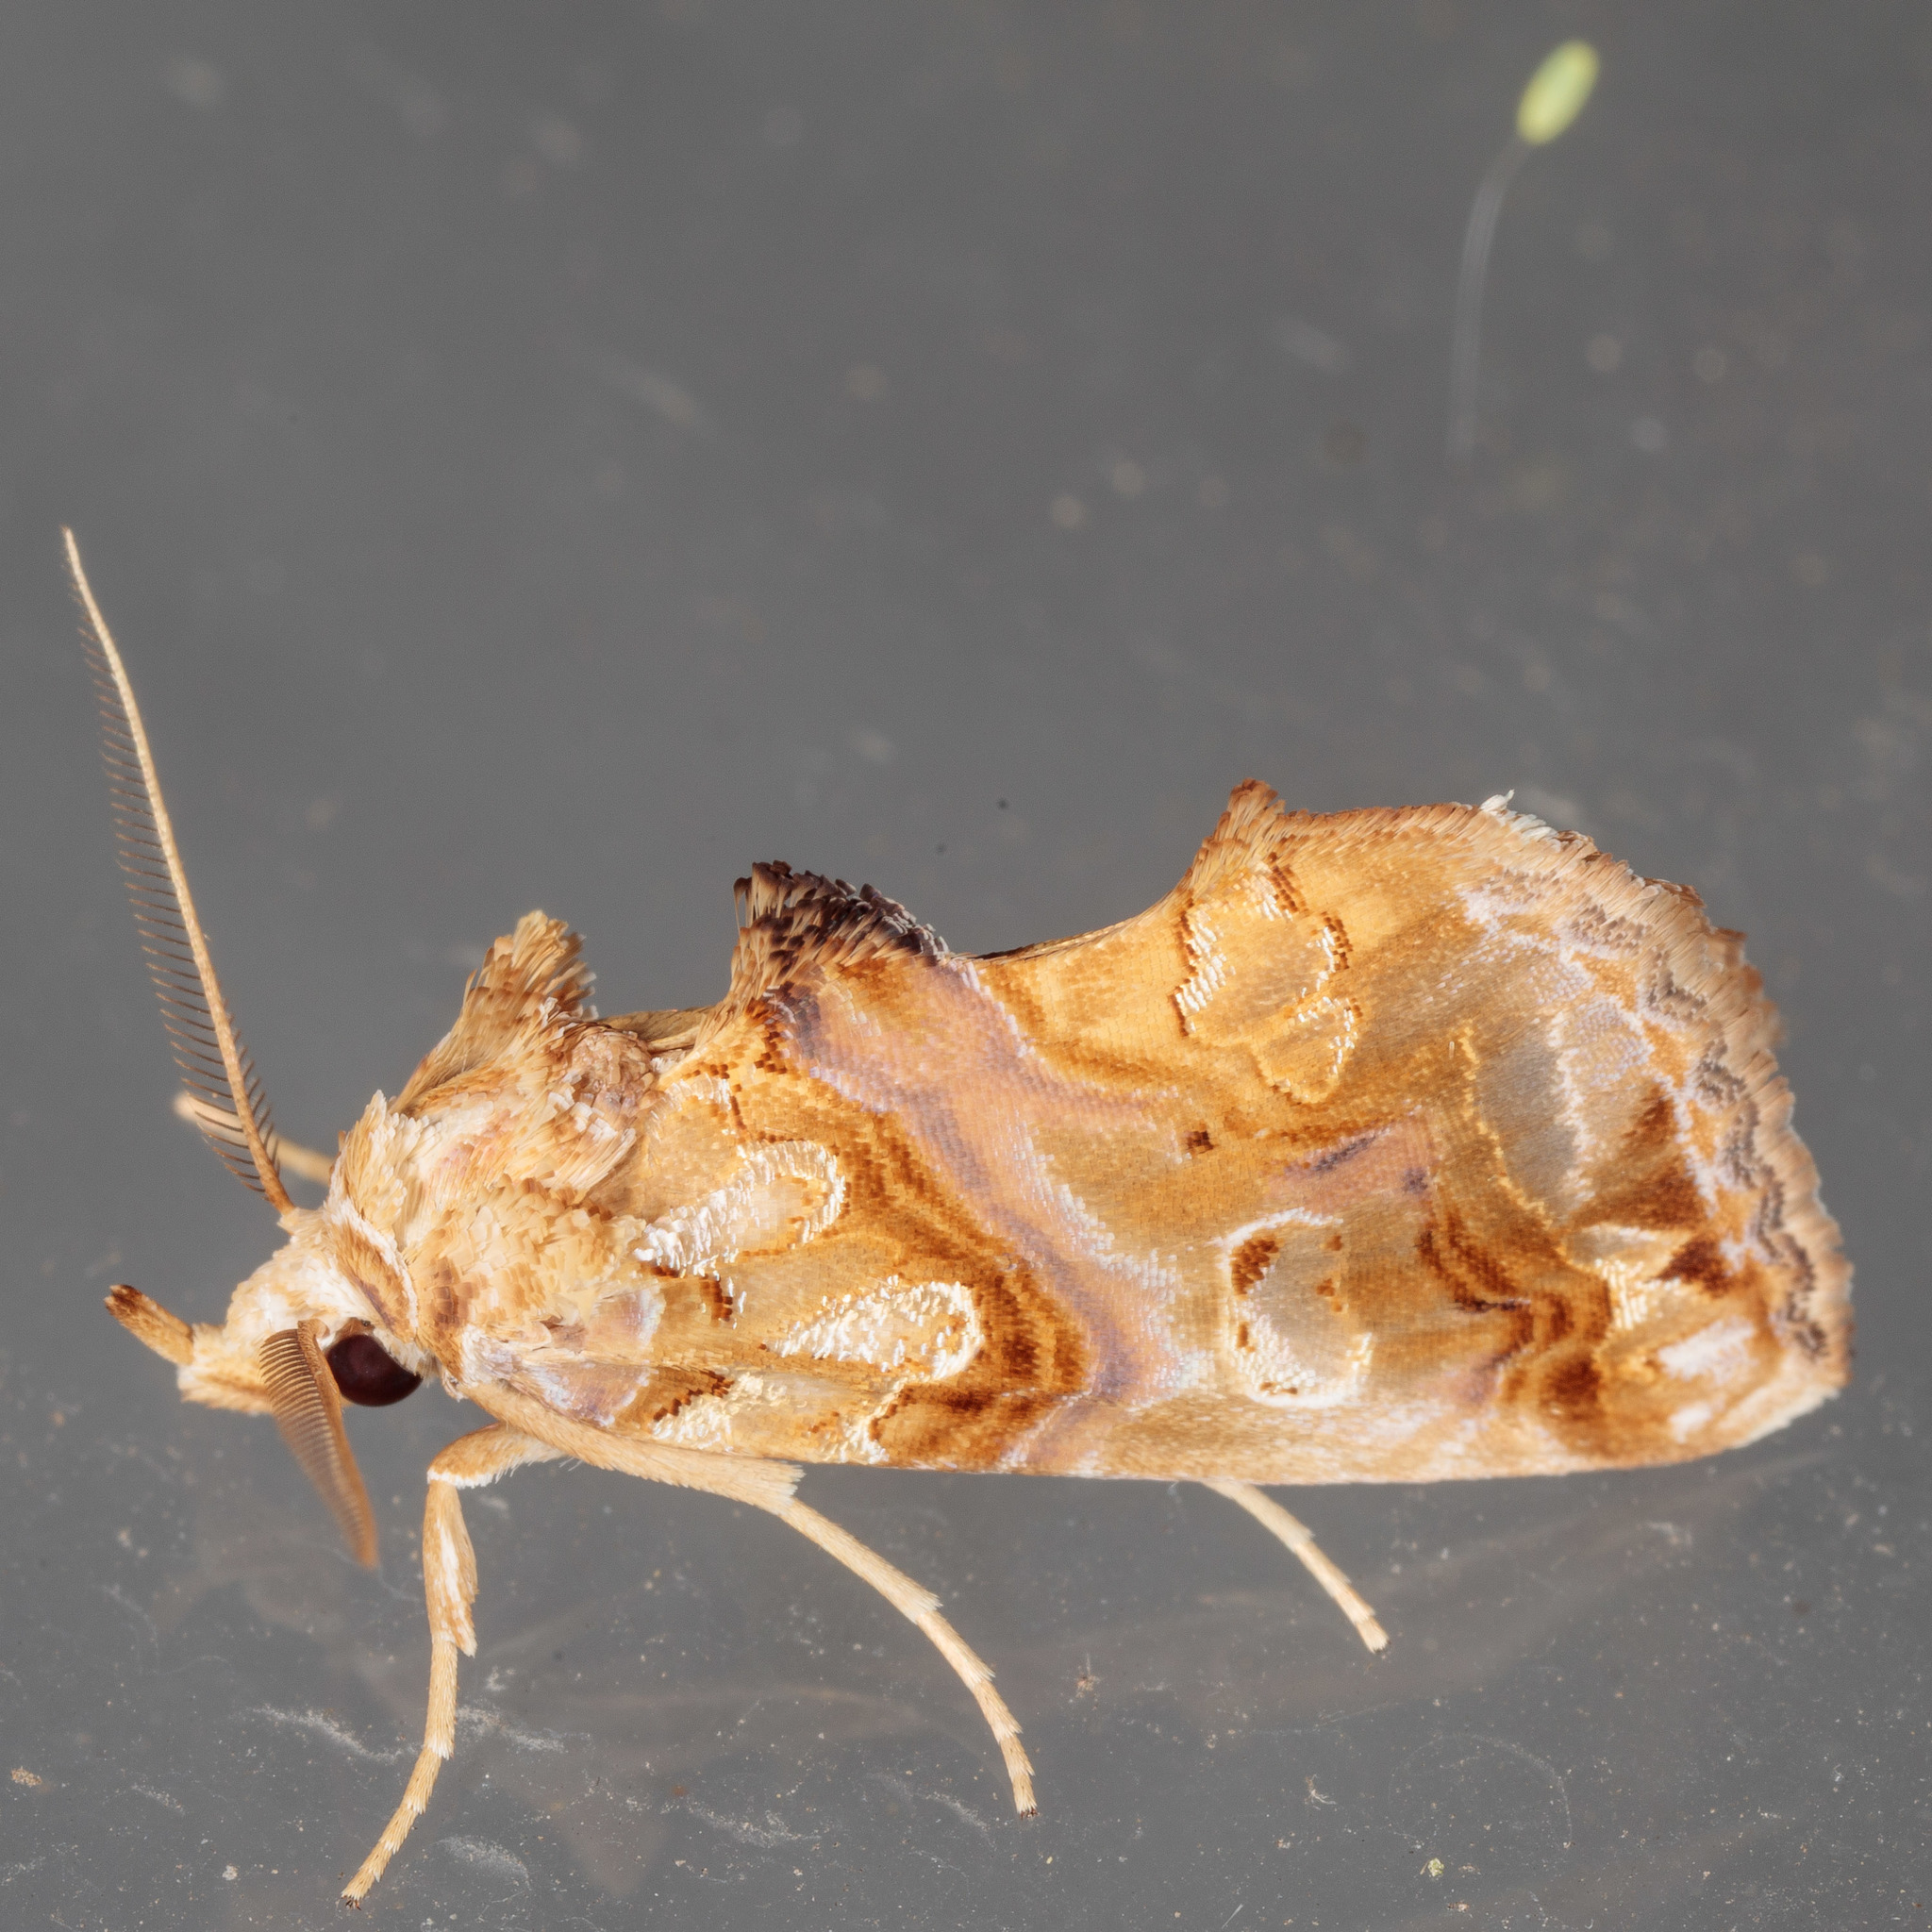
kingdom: Animalia
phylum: Arthropoda
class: Insecta
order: Lepidoptera
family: Erebidae
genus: Plusiodonta
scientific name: Plusiodonta compressipalpis
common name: Moonseed moth
